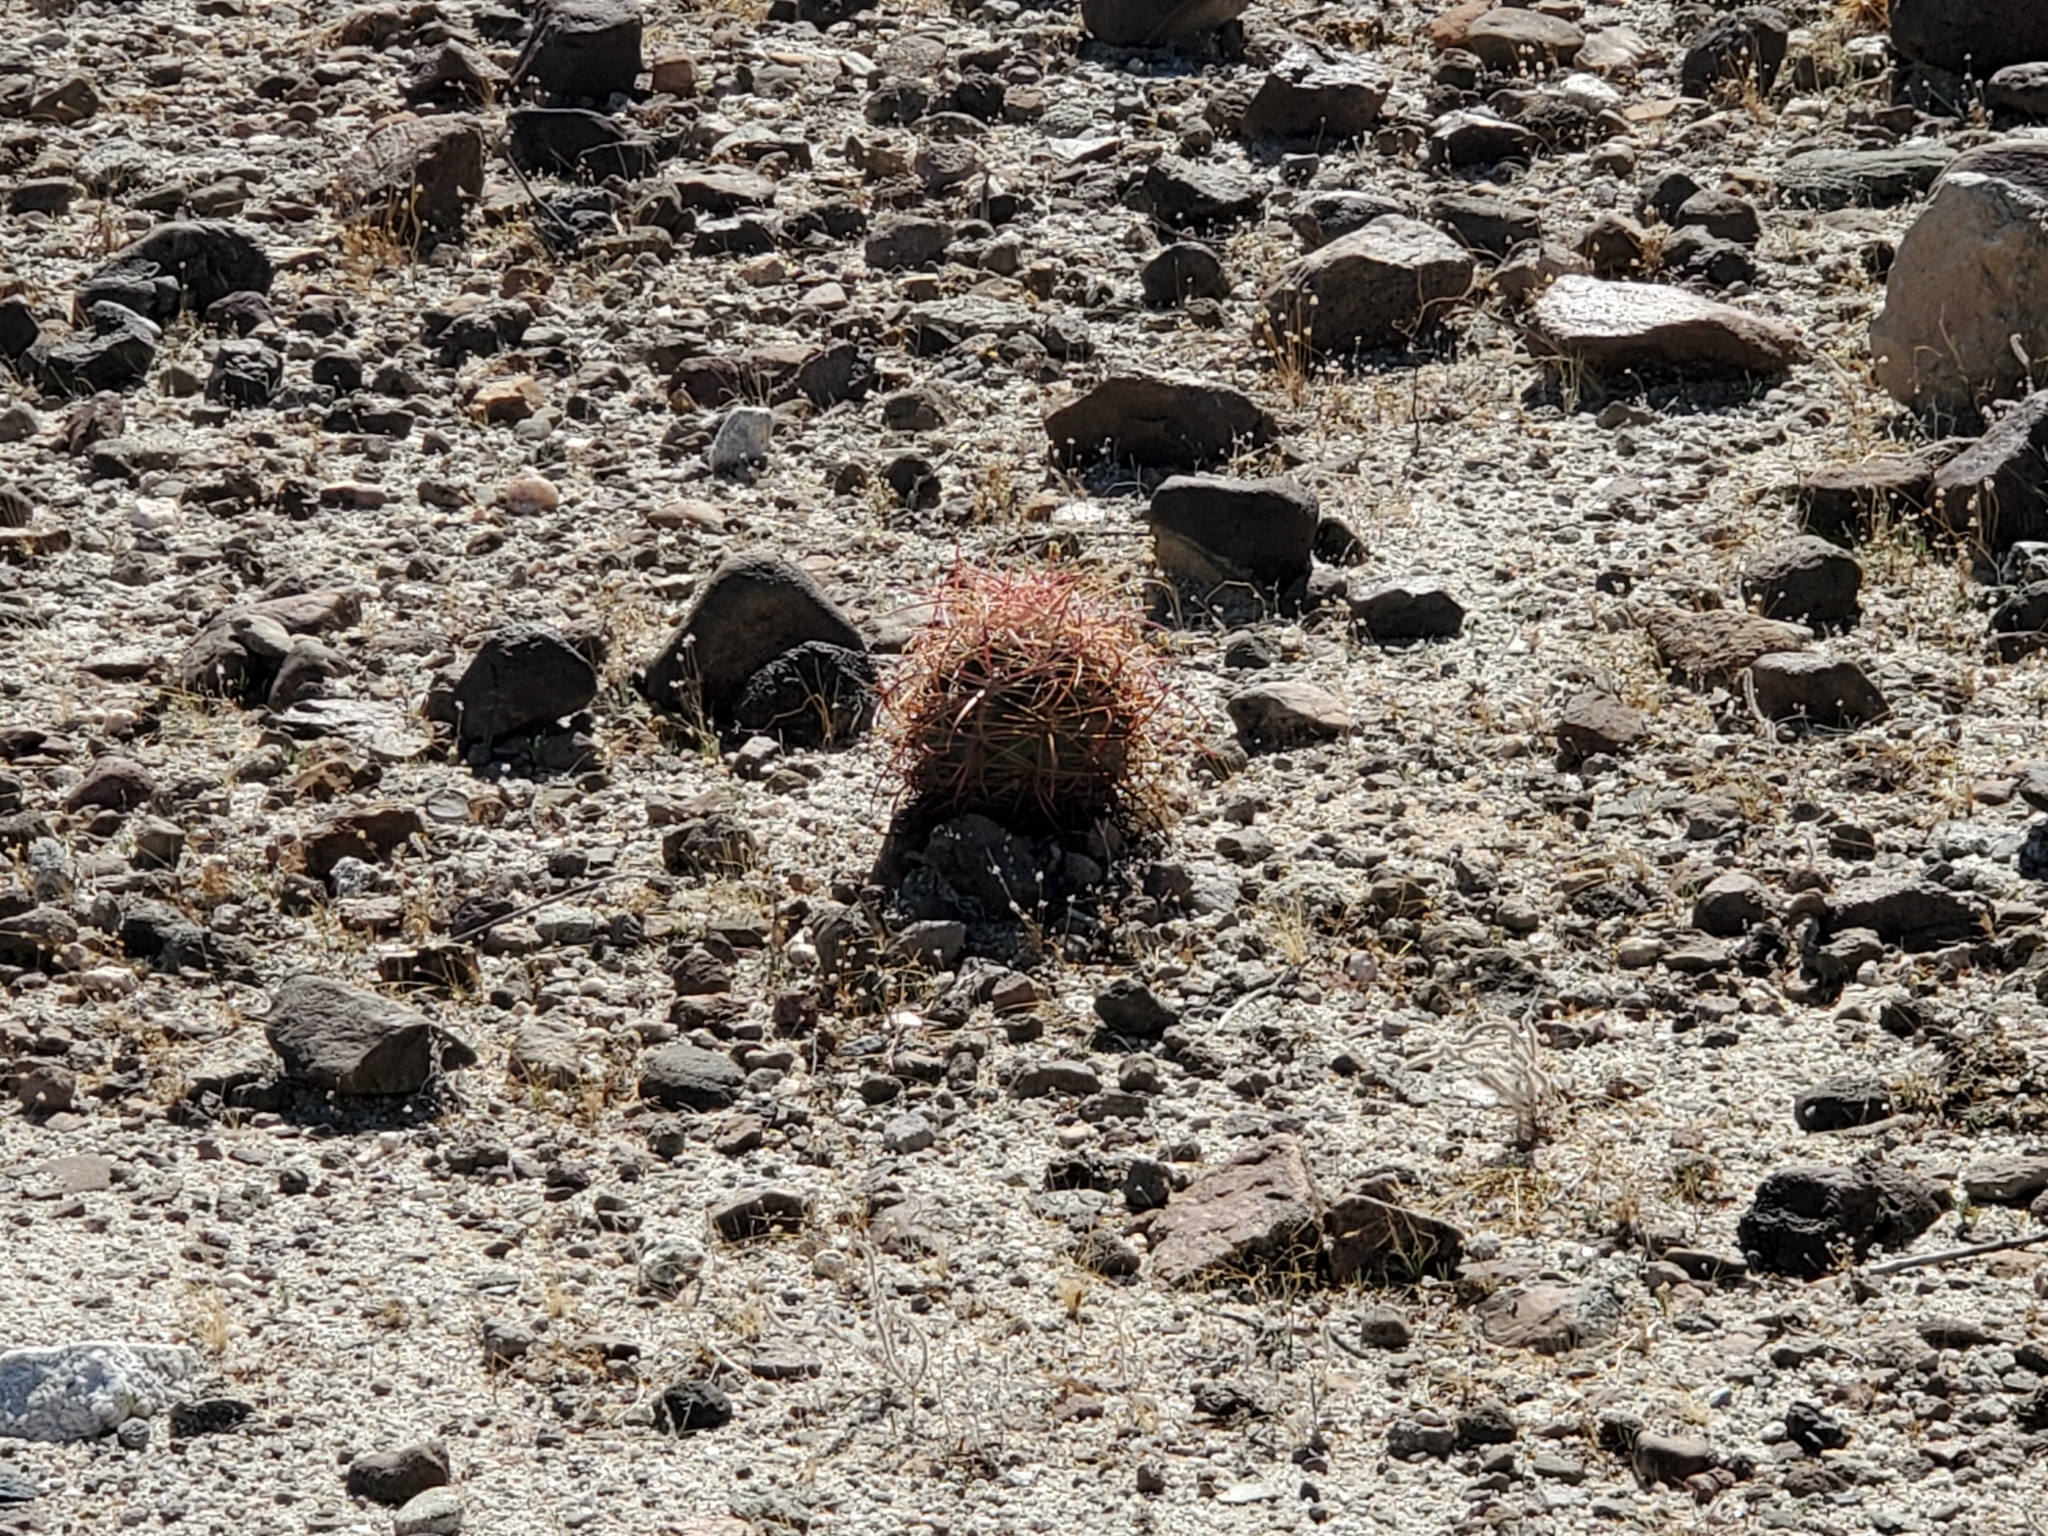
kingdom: Plantae
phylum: Tracheophyta
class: Magnoliopsida
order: Caryophyllales
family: Cactaceae
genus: Ferocactus
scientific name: Ferocactus cylindraceus
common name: California barrel cactus
